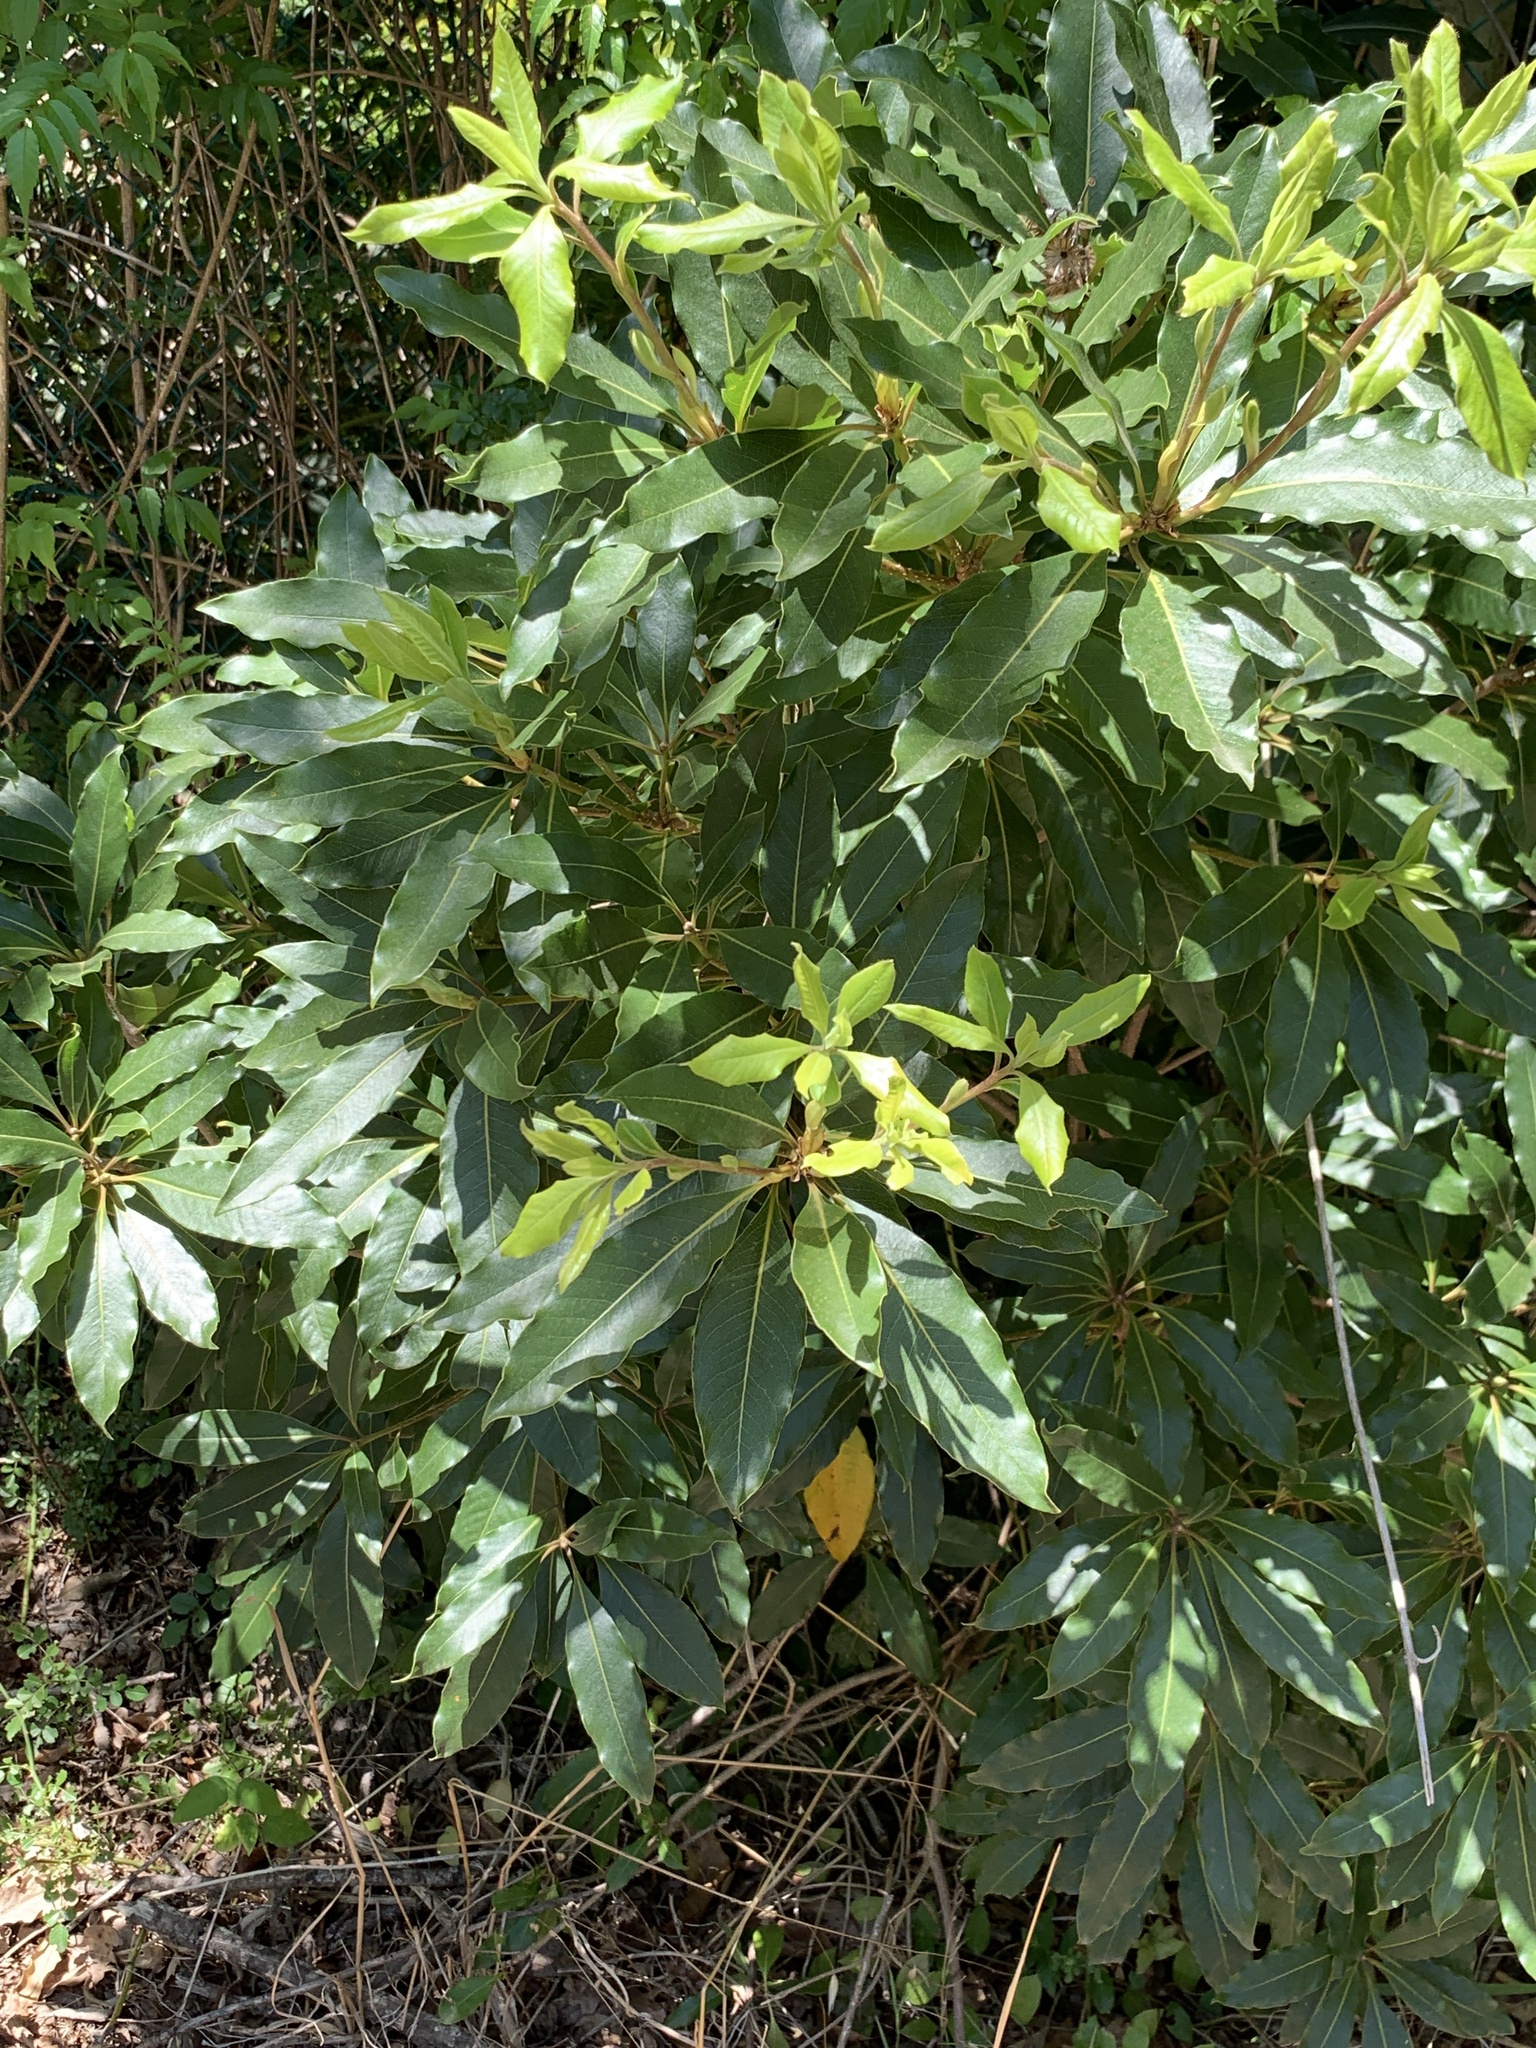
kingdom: Plantae
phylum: Tracheophyta
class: Magnoliopsida
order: Apiales
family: Pittosporaceae
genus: Pittosporum
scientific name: Pittosporum undulatum
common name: Australian cheesewood
